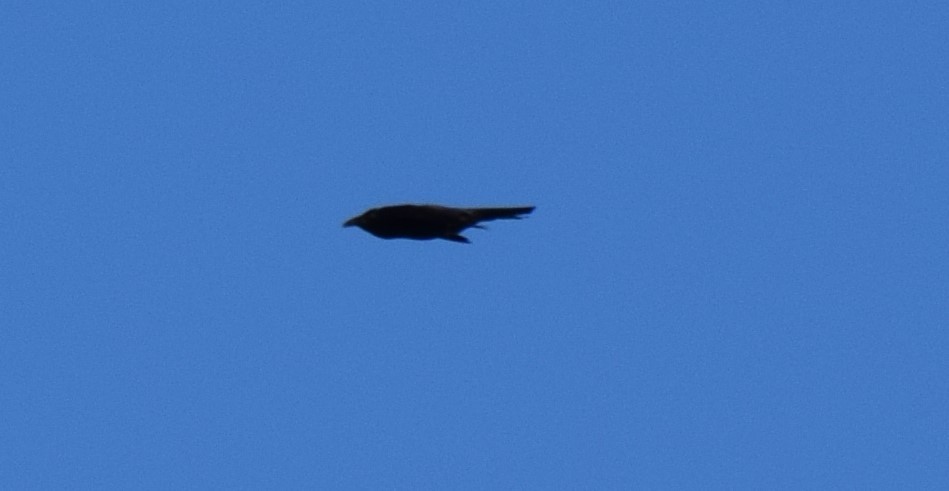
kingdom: Animalia
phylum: Chordata
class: Aves
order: Passeriformes
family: Corvidae
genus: Corvus
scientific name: Corvus coronoides
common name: Australian raven
